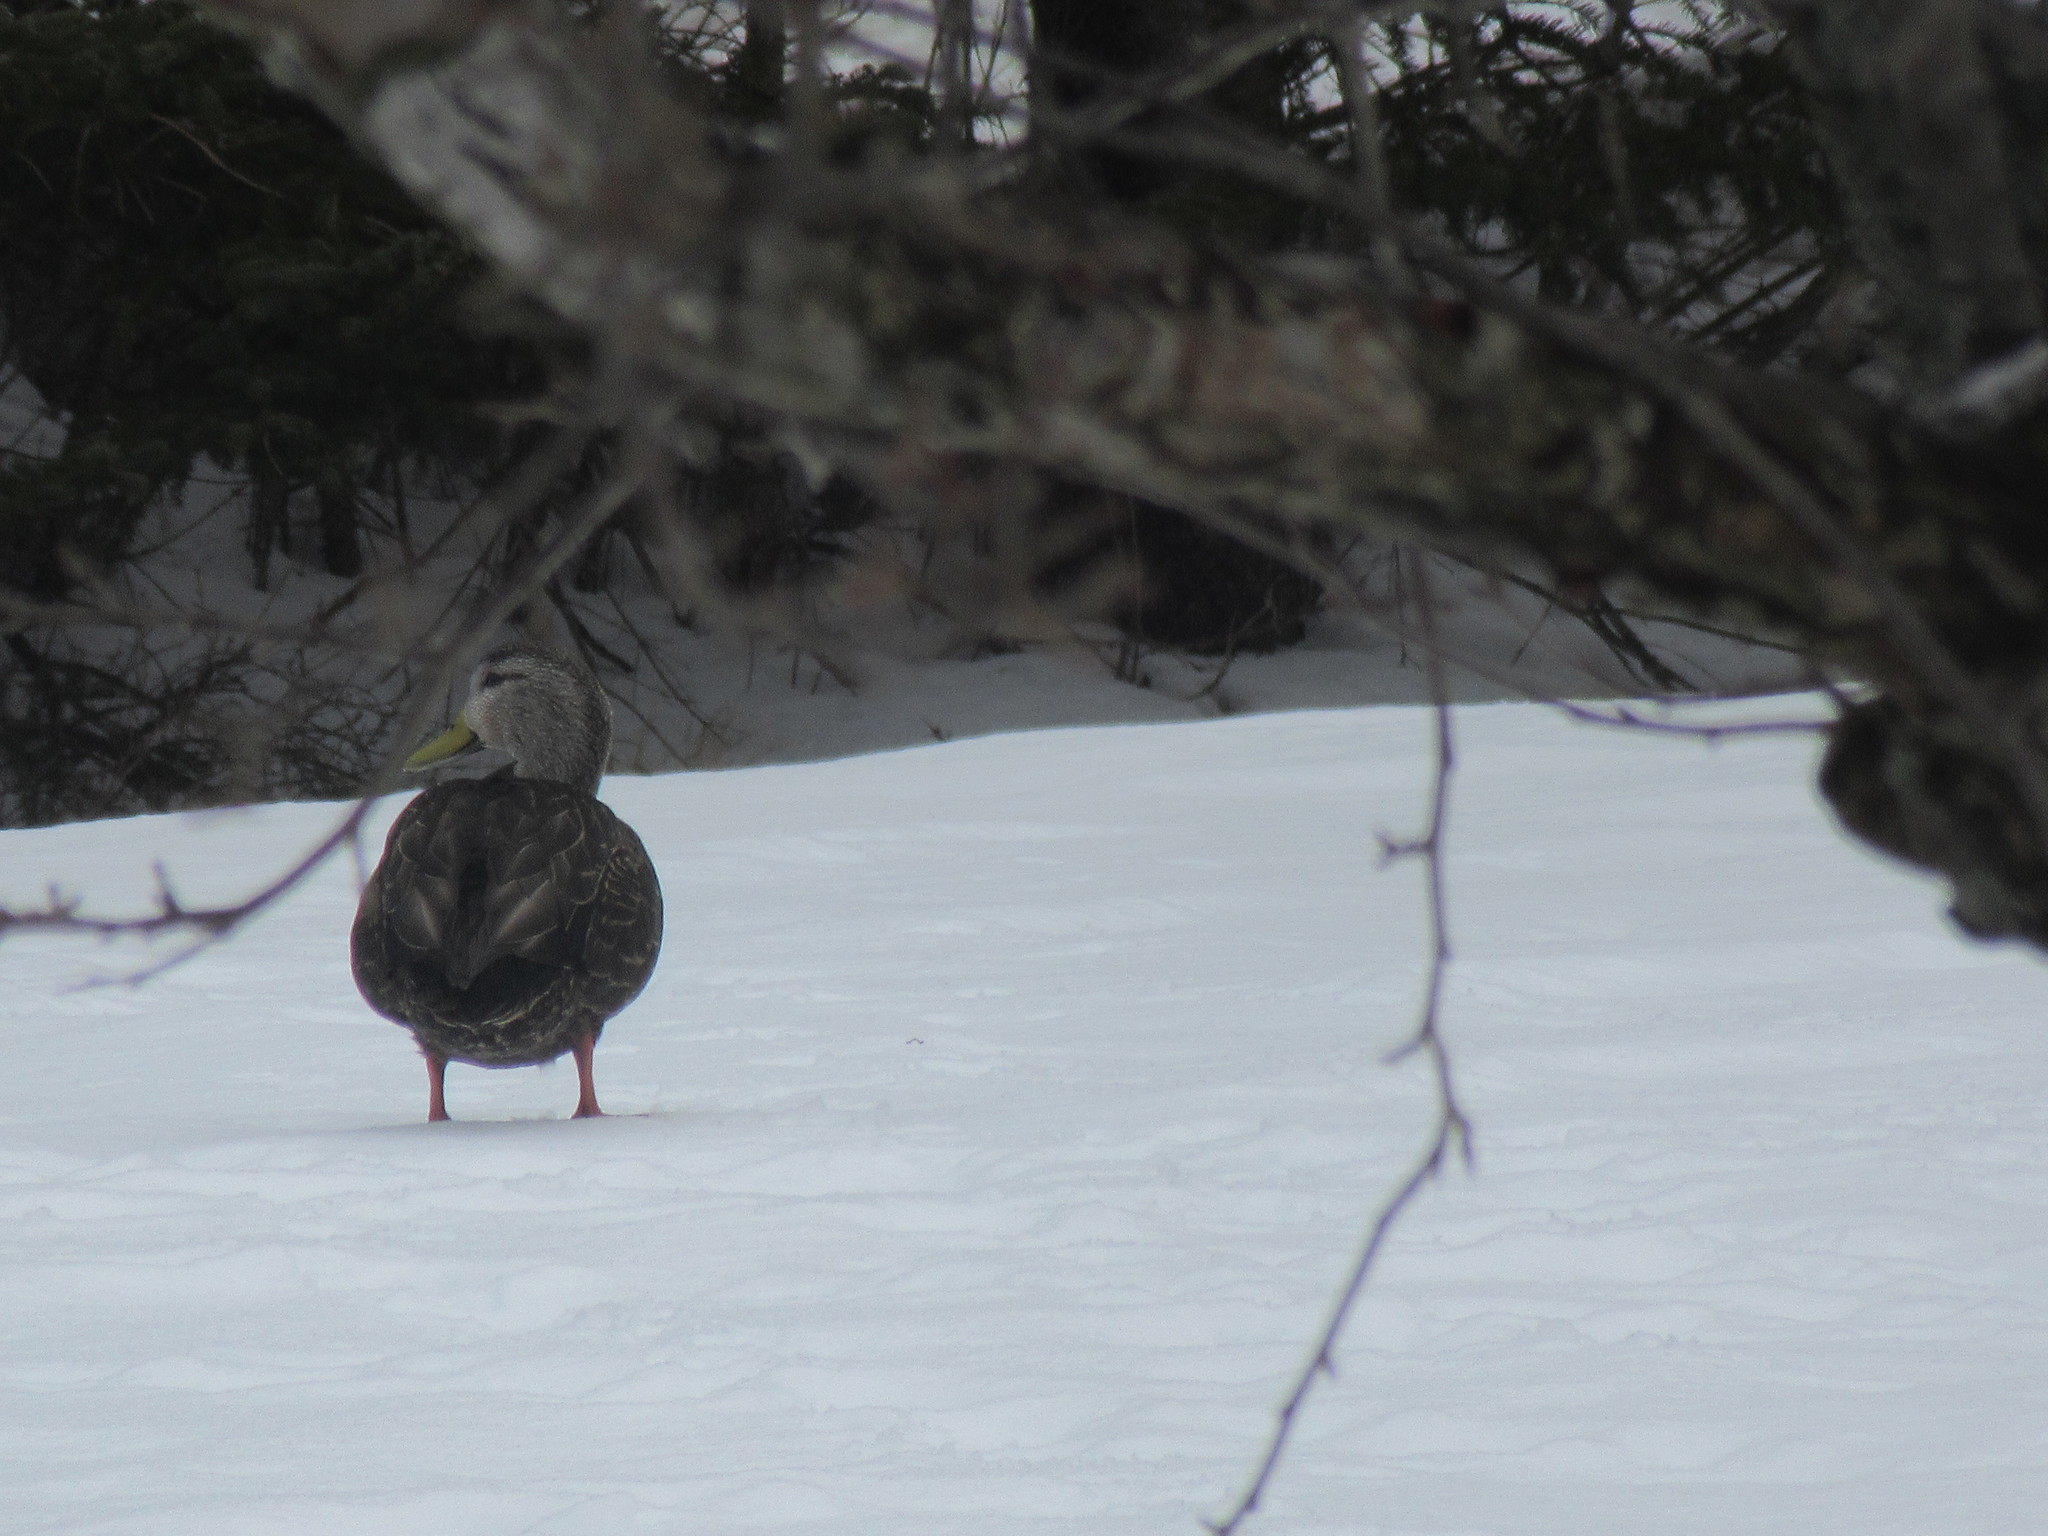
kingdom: Animalia
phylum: Chordata
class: Aves
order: Anseriformes
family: Anatidae
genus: Anas
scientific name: Anas rubripes
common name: American black duck
